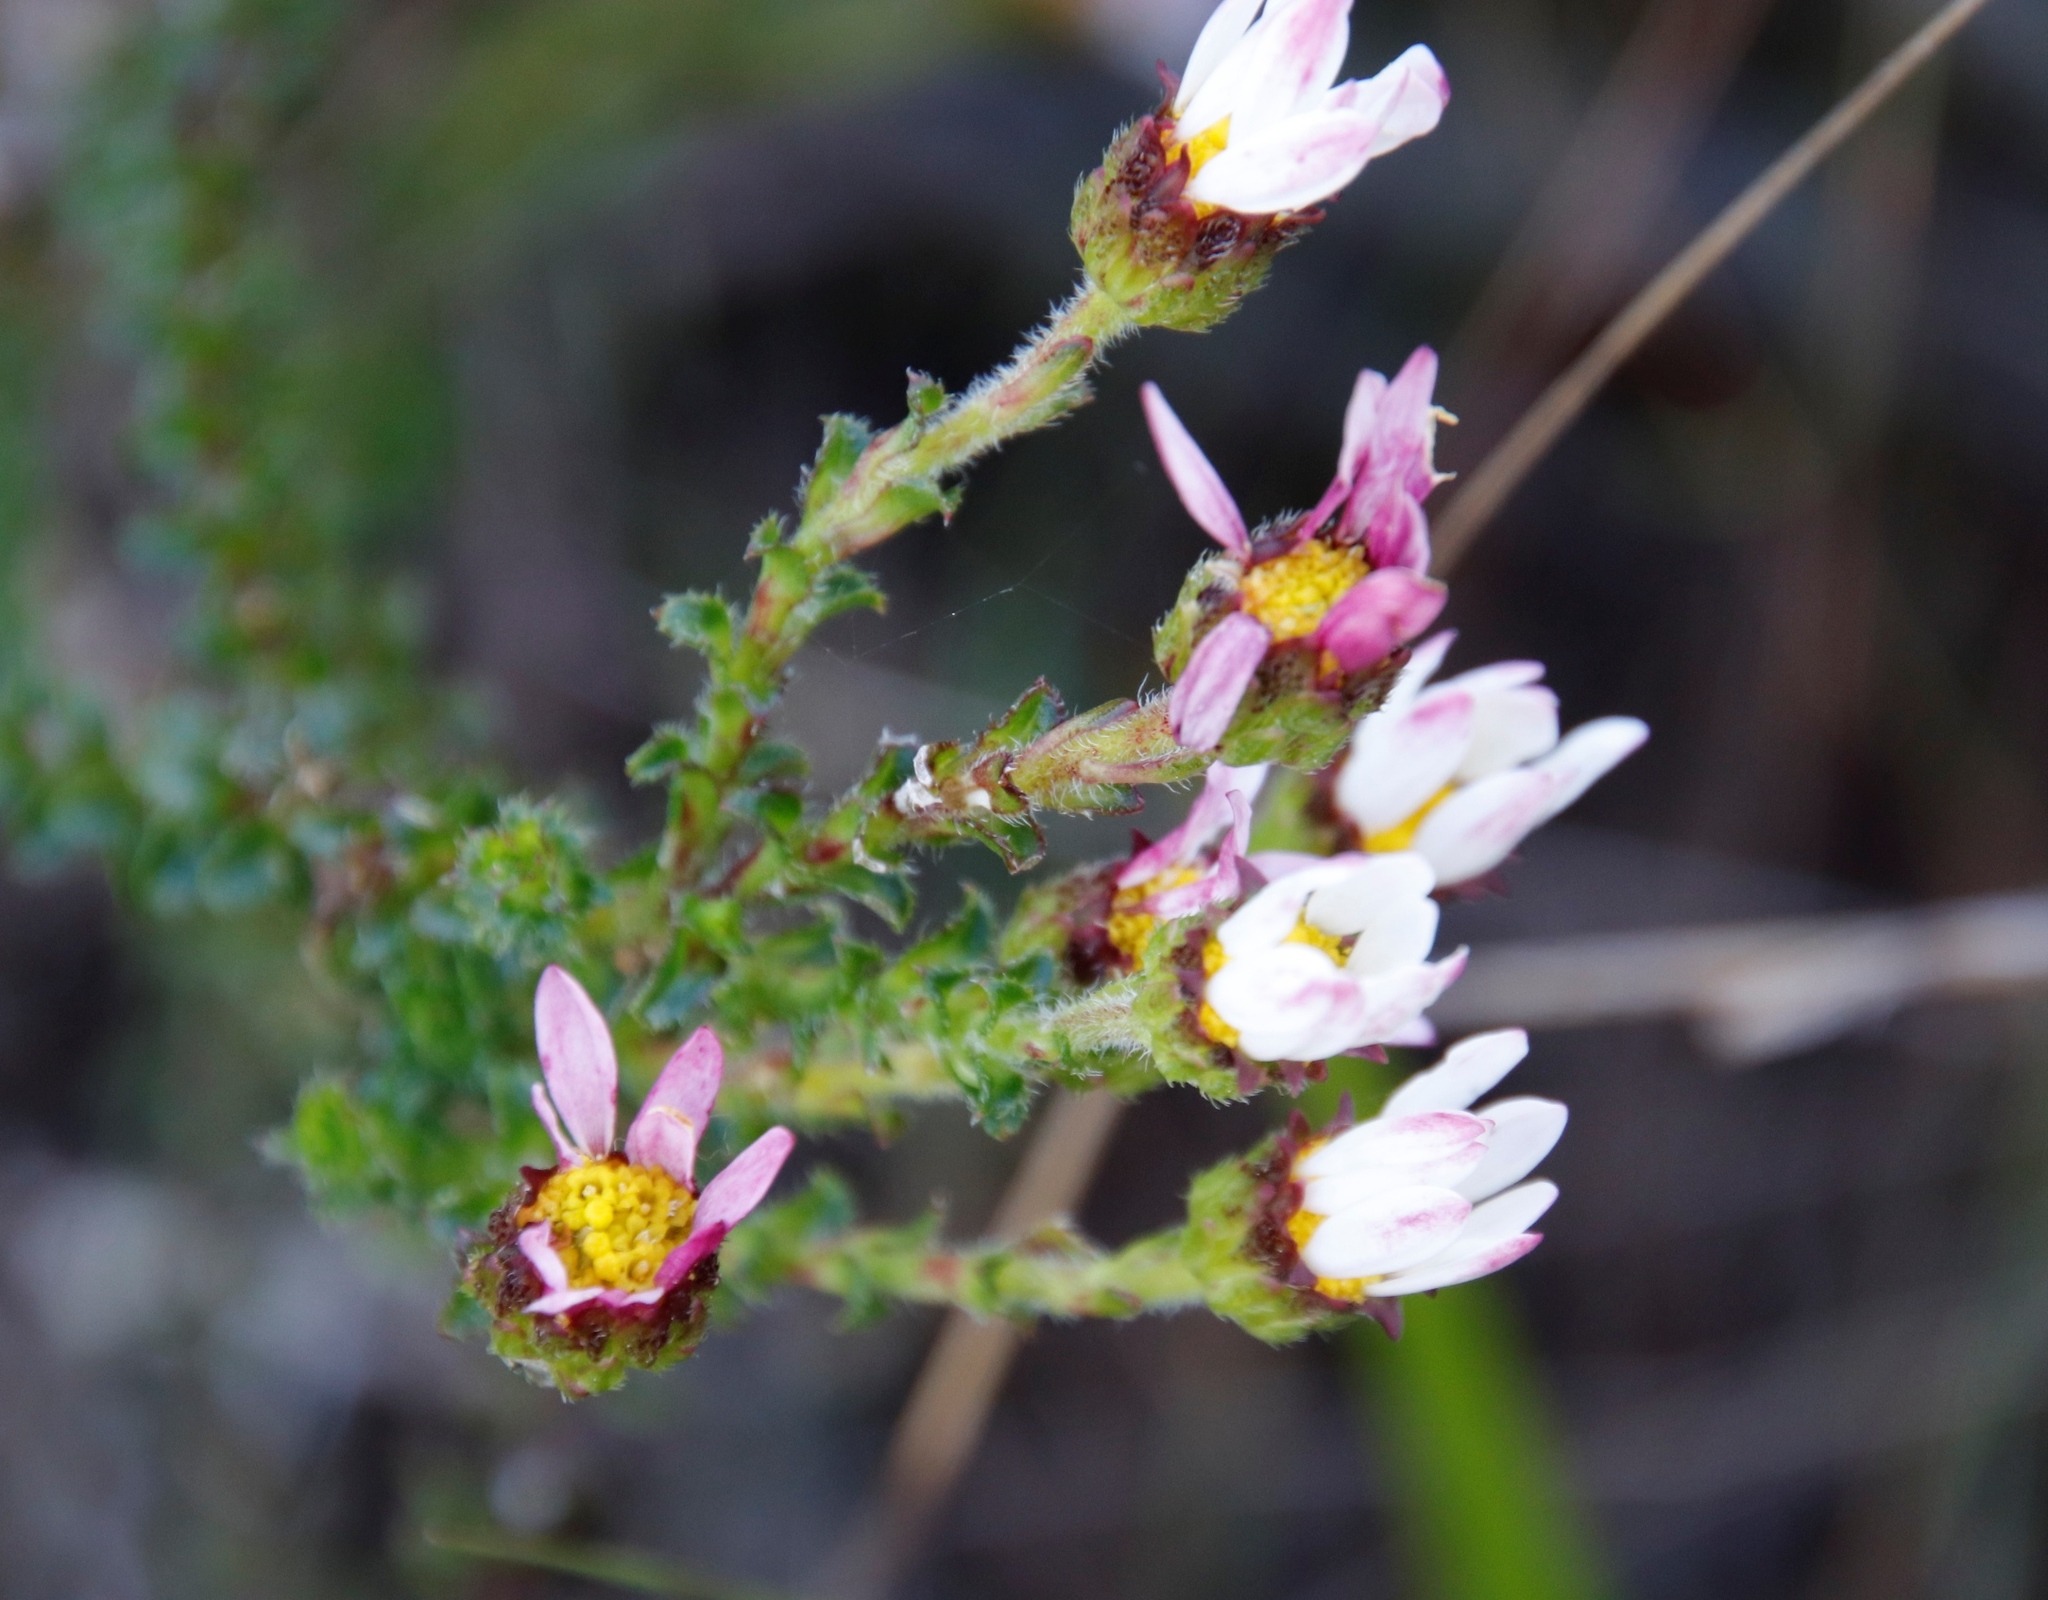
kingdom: Plantae
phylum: Tracheophyta
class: Magnoliopsida
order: Asterales
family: Asteraceae
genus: Polyarrhena
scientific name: Polyarrhena reflexa
